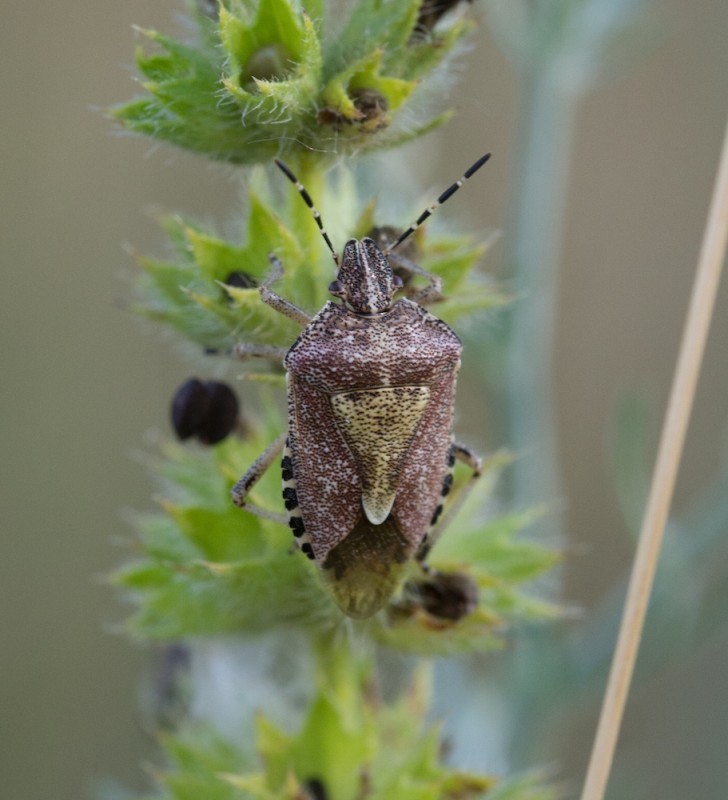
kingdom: Animalia
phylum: Arthropoda
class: Insecta
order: Hemiptera
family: Pentatomidae
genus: Dolycoris
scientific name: Dolycoris baccarum
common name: Sloe bug
